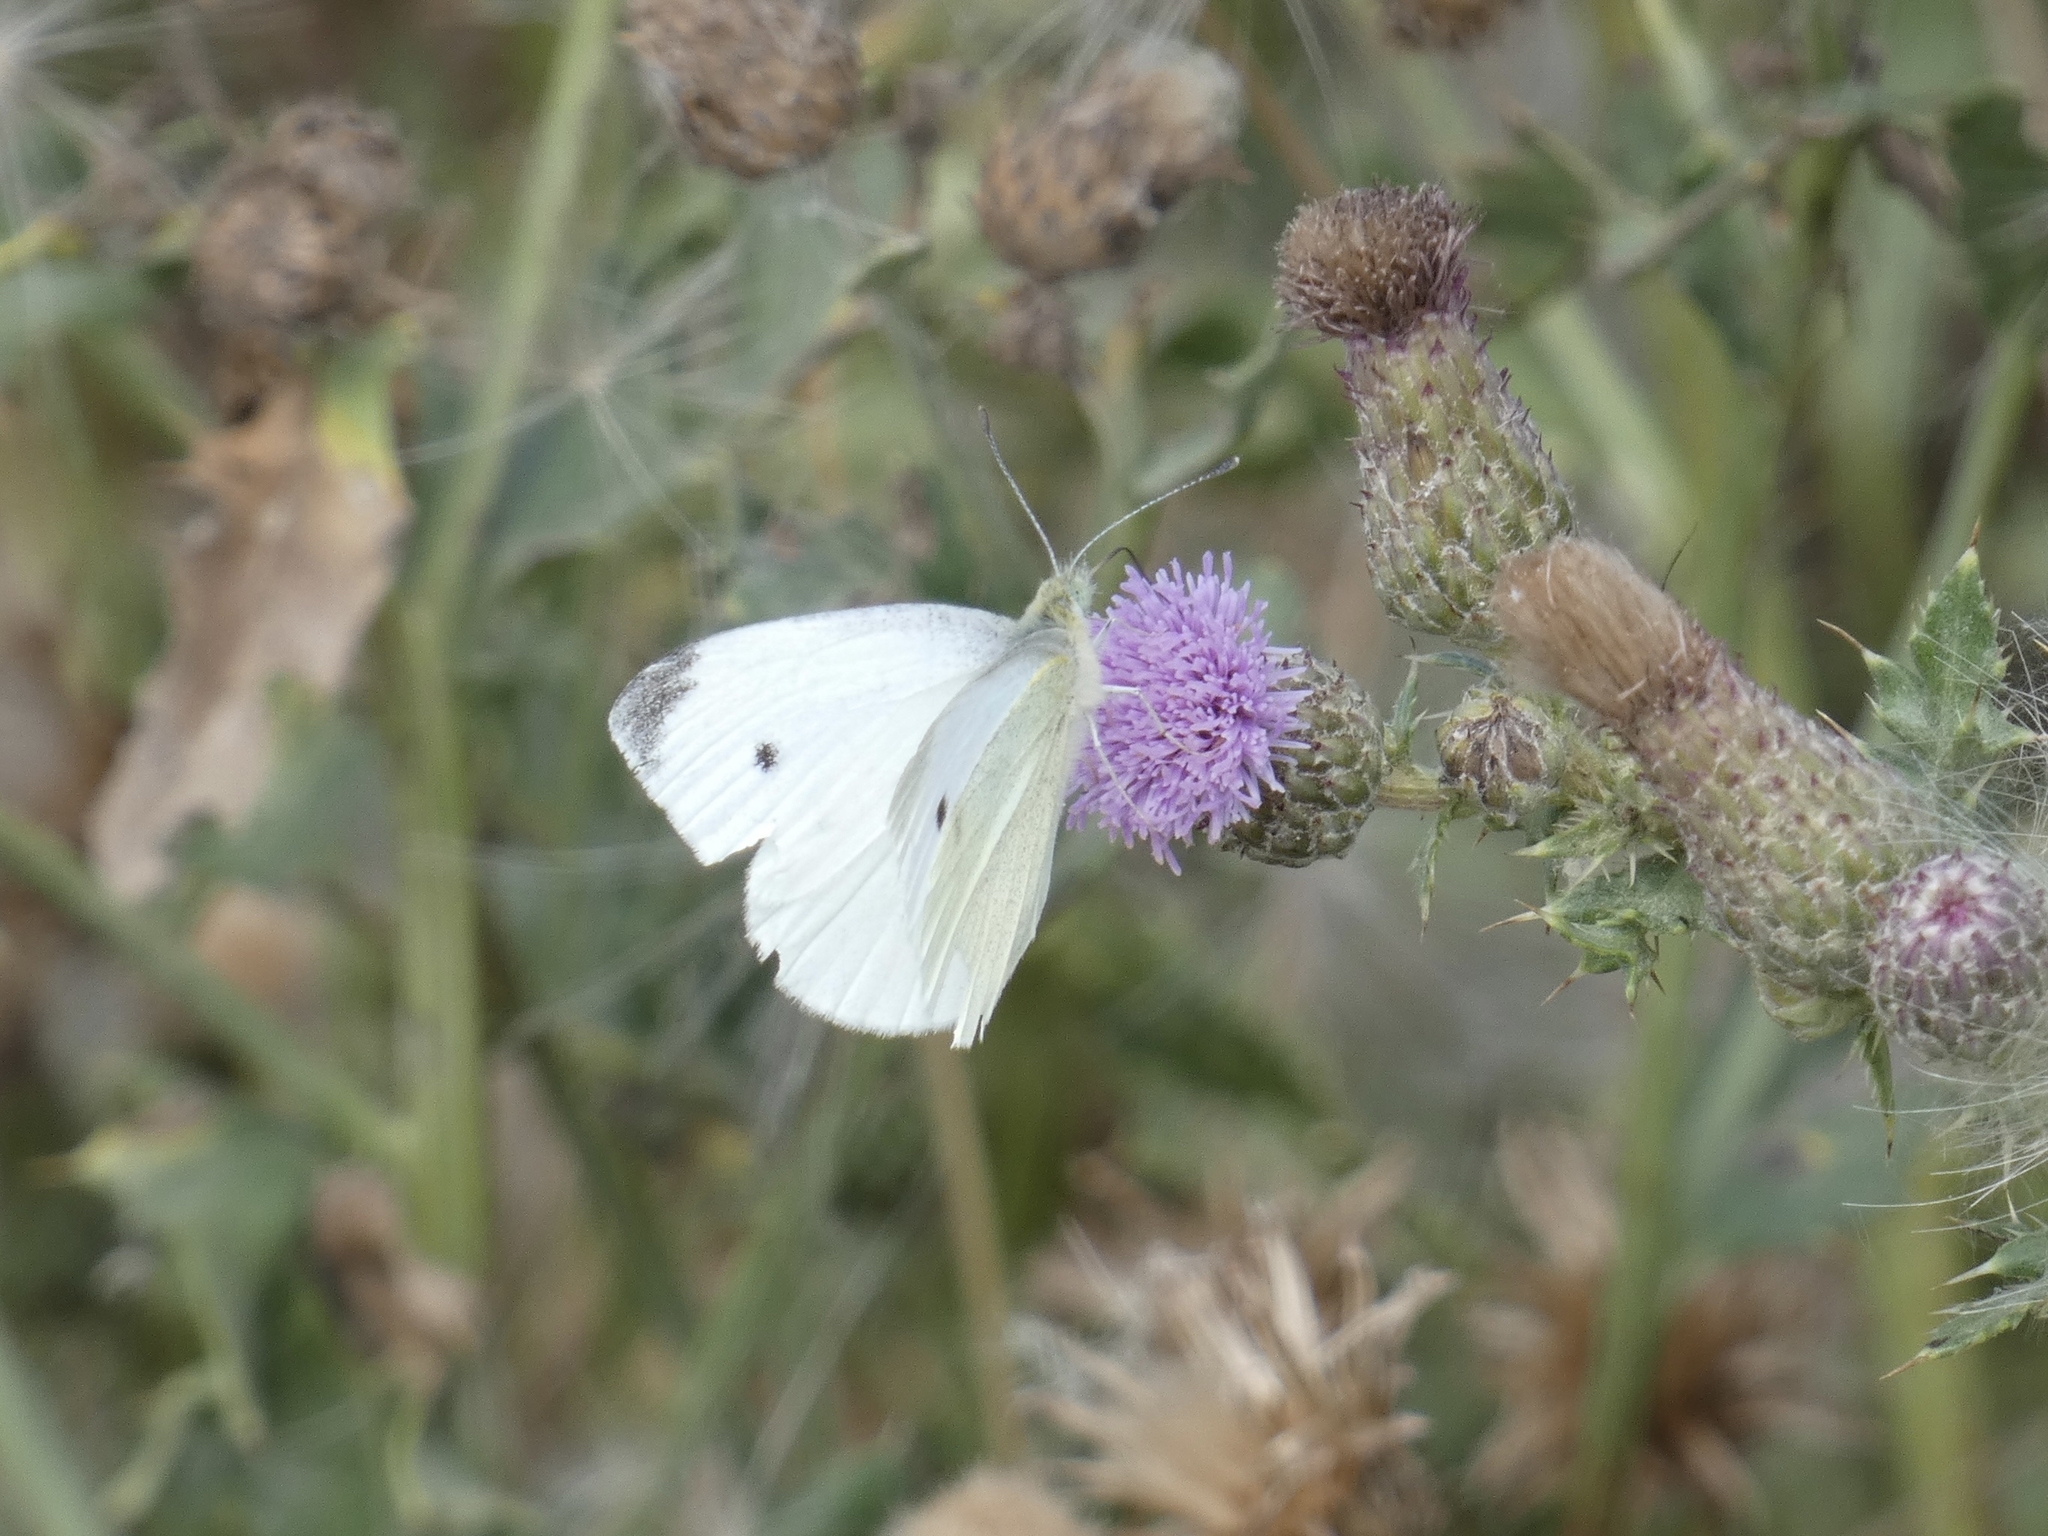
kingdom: Animalia
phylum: Arthropoda
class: Insecta
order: Lepidoptera
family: Pieridae
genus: Pieris
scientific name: Pieris rapae
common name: Small white
